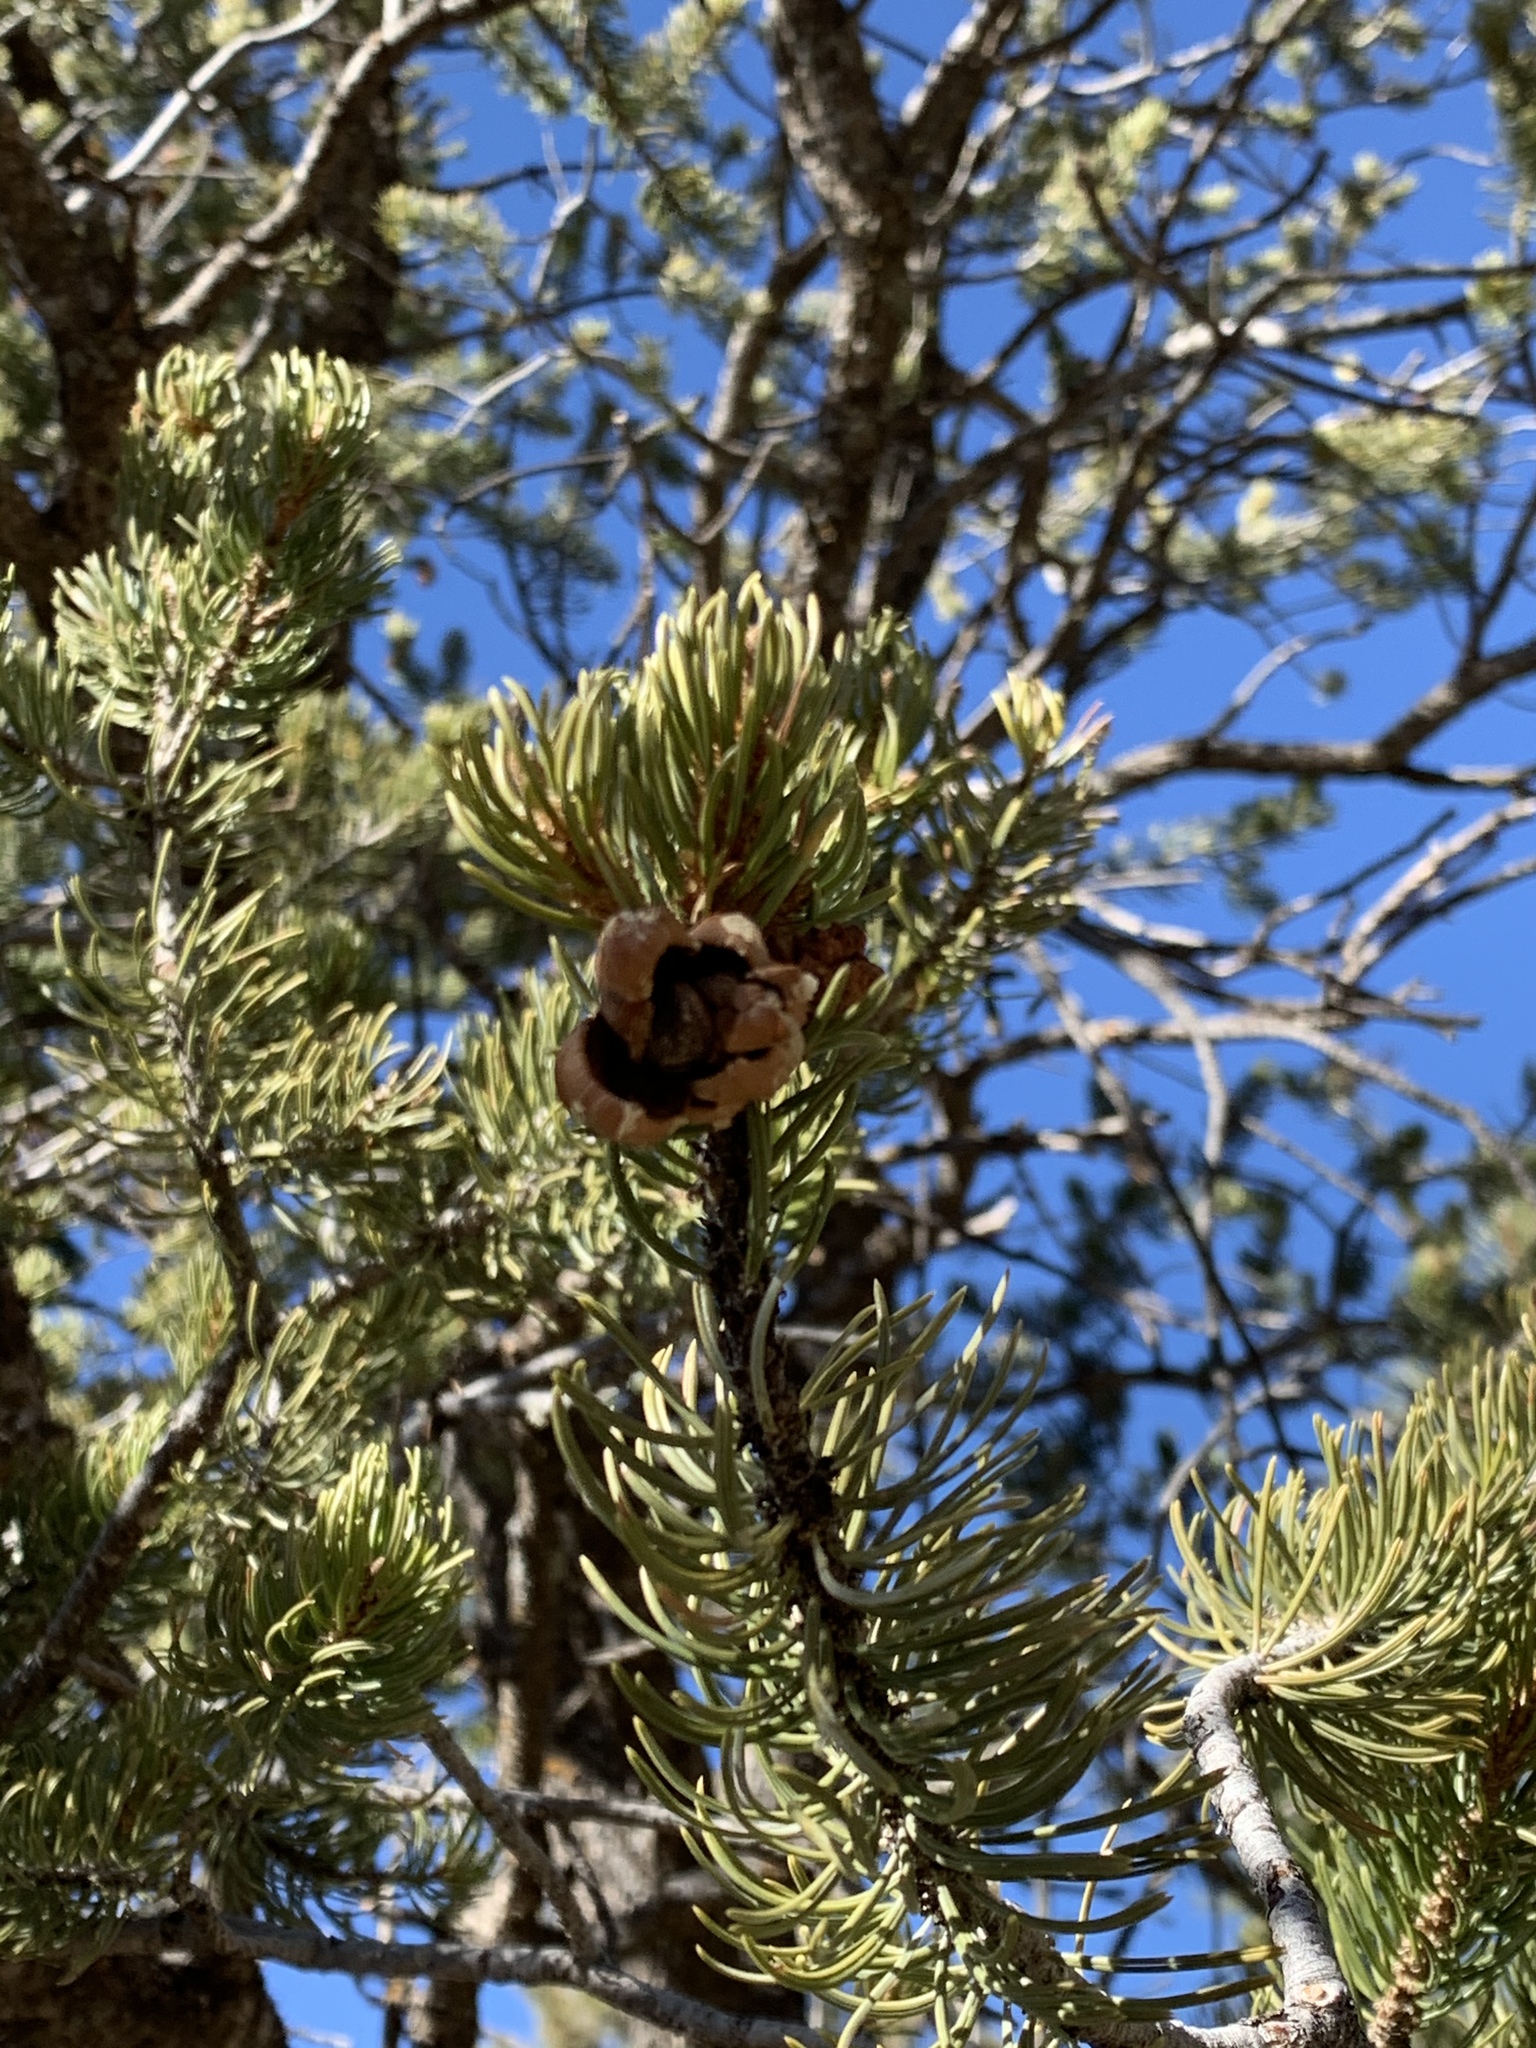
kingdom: Plantae
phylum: Tracheophyta
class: Pinopsida
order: Pinales
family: Pinaceae
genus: Pinus
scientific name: Pinus edulis
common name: Colorado pinyon
